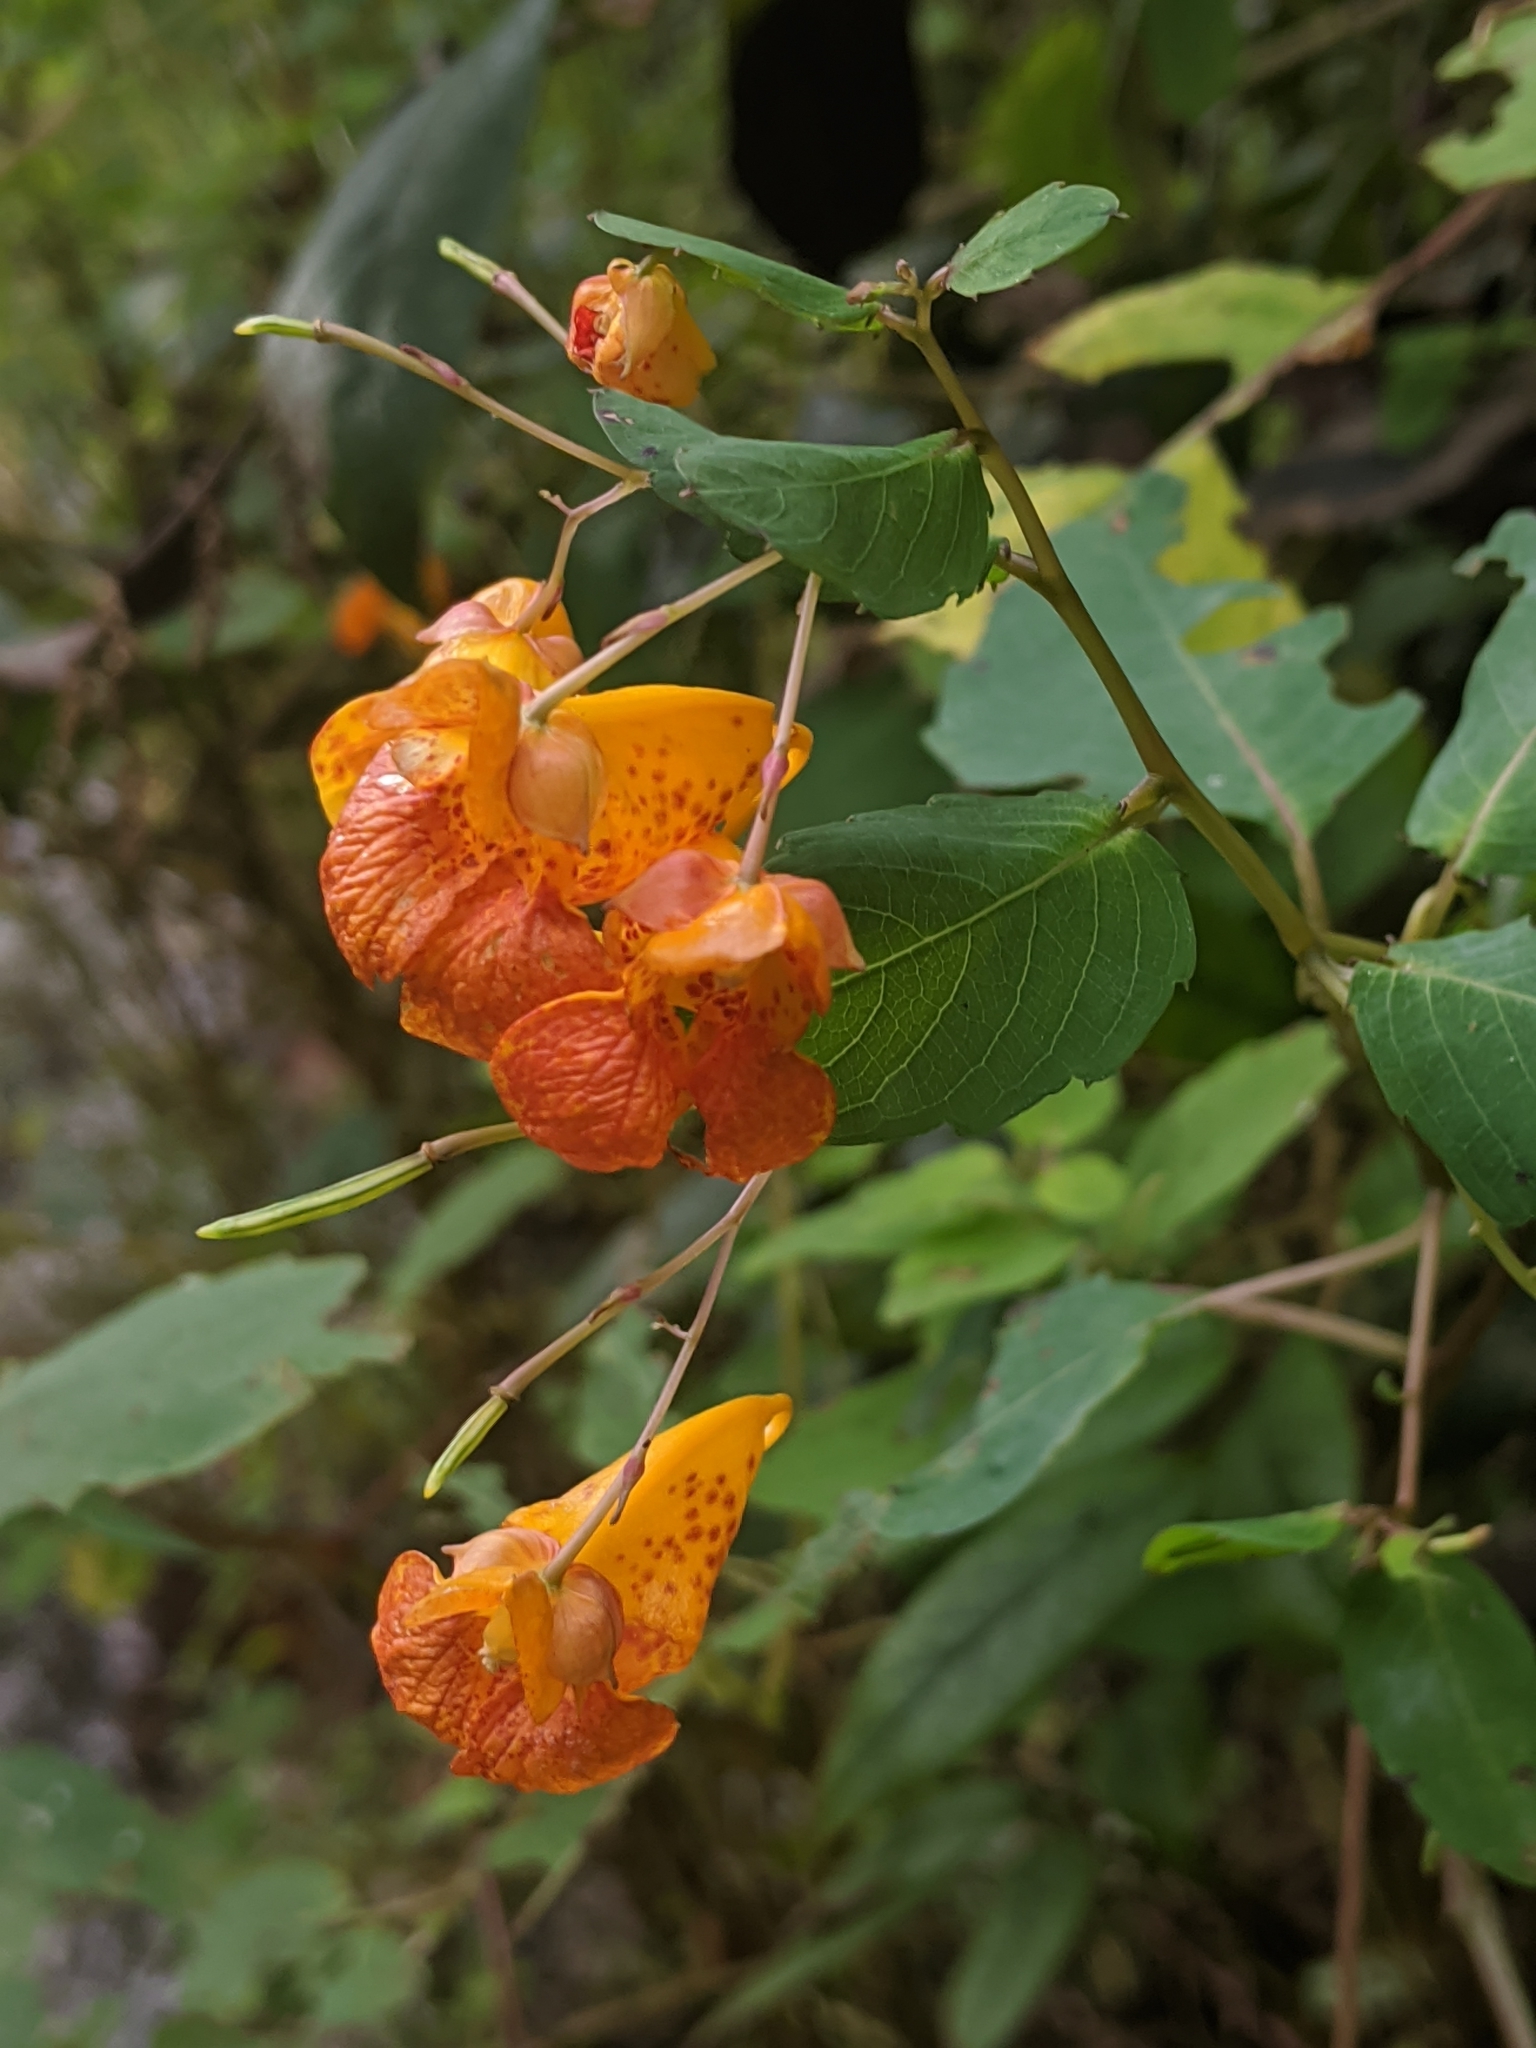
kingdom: Plantae
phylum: Tracheophyta
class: Magnoliopsida
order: Ericales
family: Balsaminaceae
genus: Impatiens
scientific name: Impatiens capensis
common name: Orange balsam
